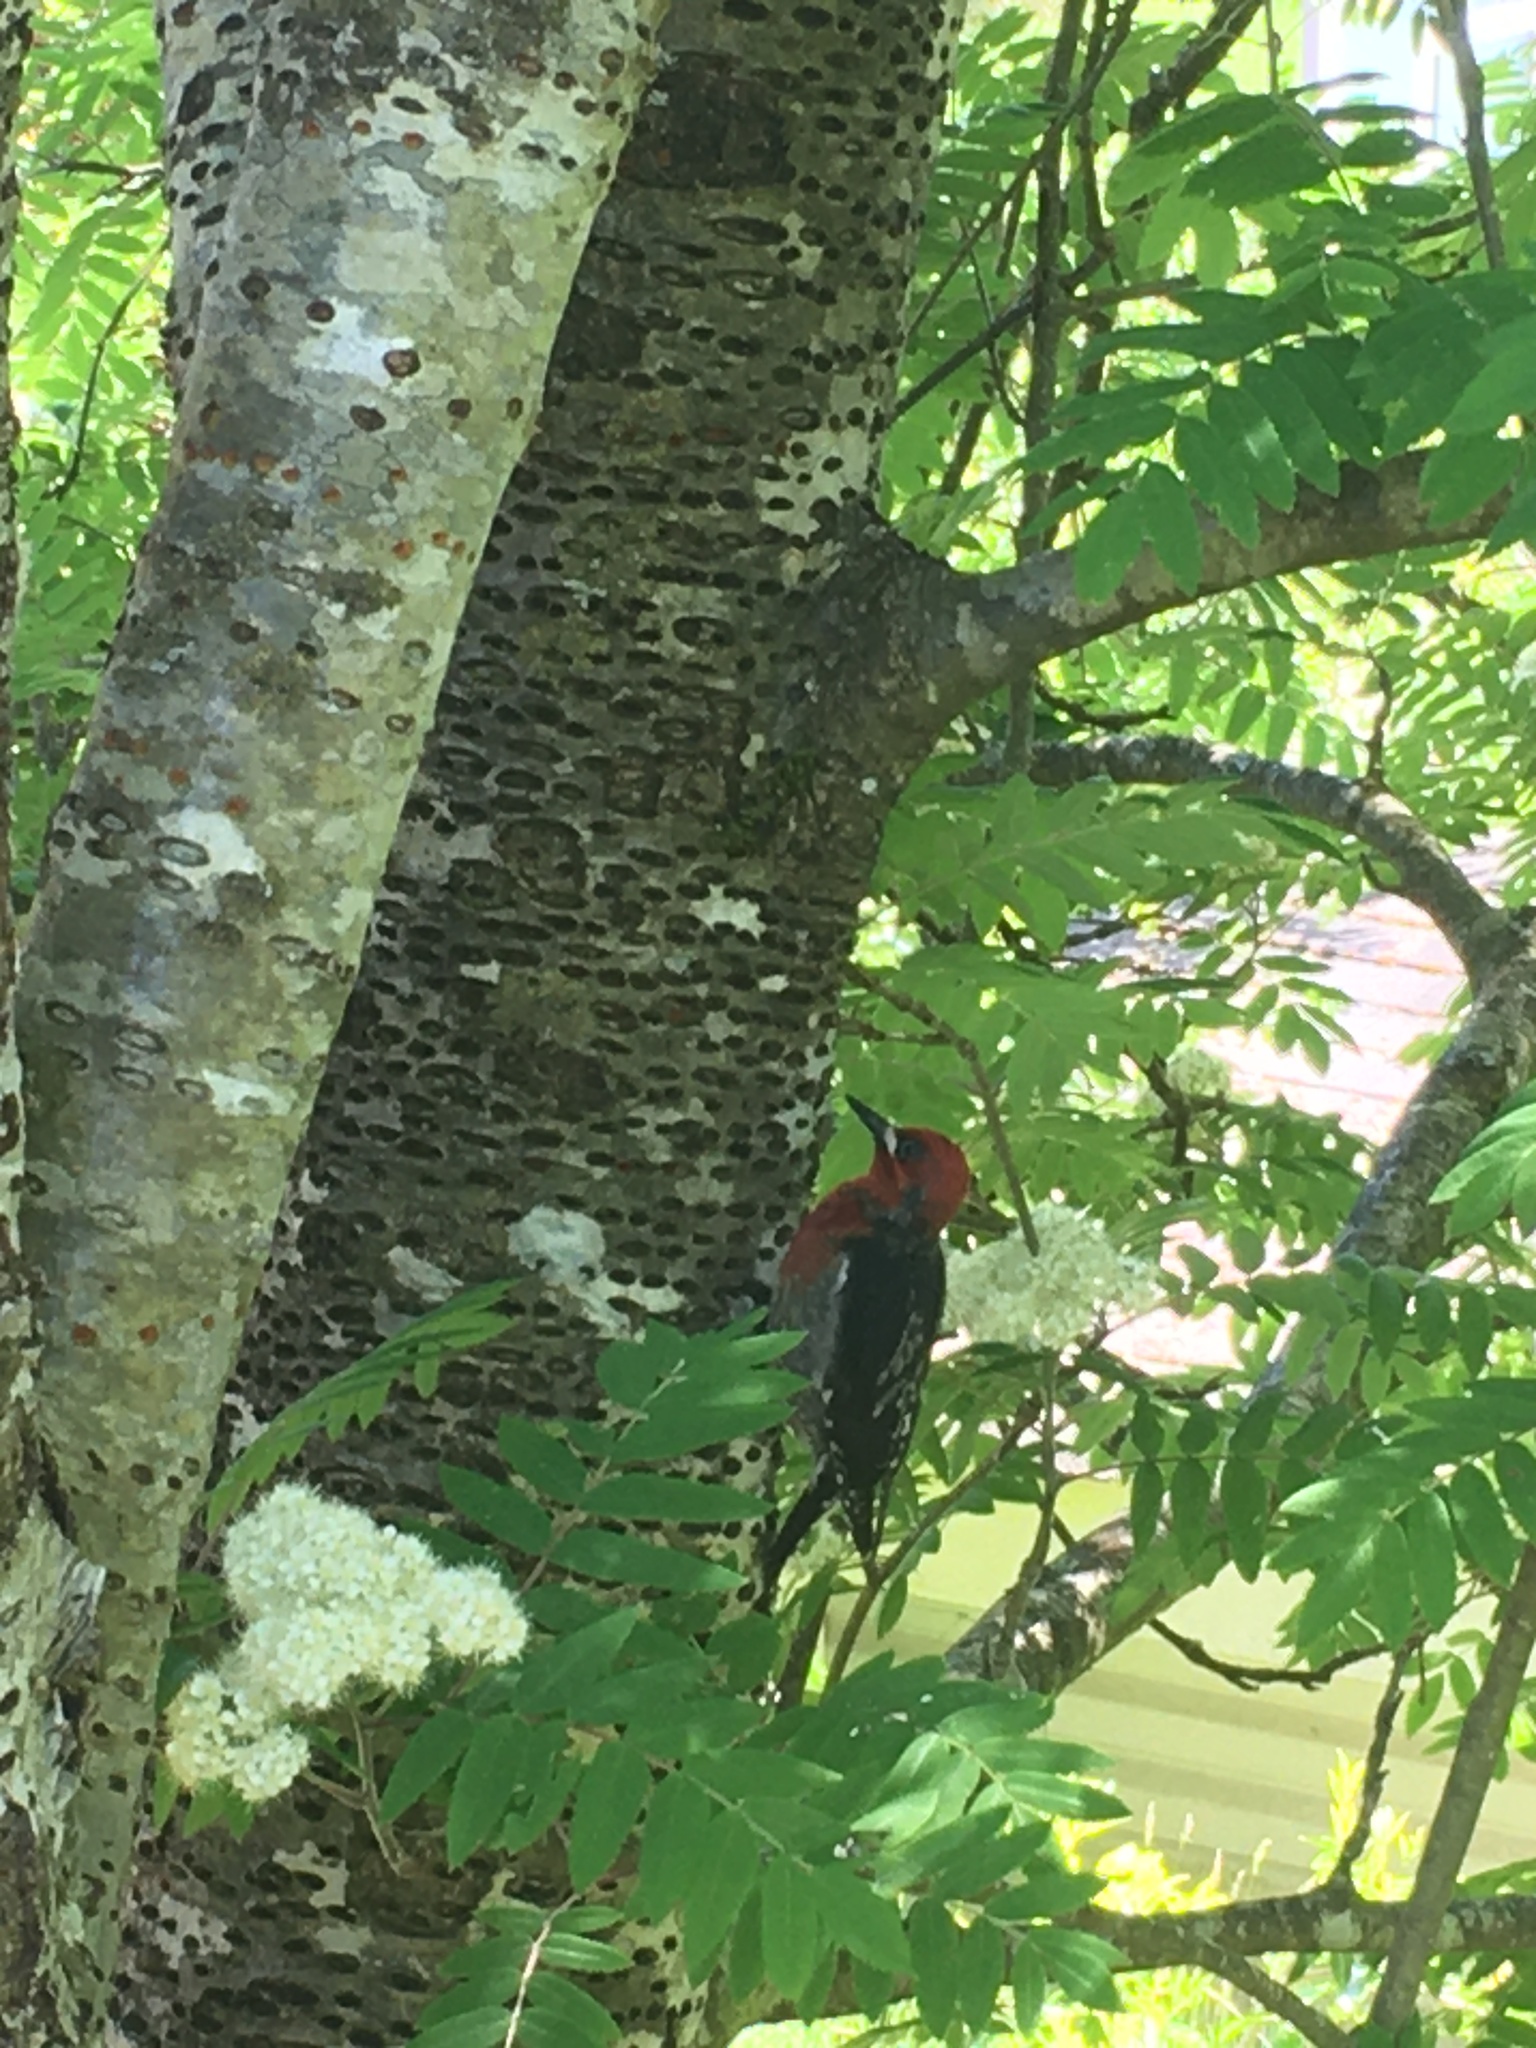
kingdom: Animalia
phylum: Chordata
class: Aves
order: Piciformes
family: Picidae
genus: Sphyrapicus
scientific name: Sphyrapicus ruber
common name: Red-breasted sapsucker
